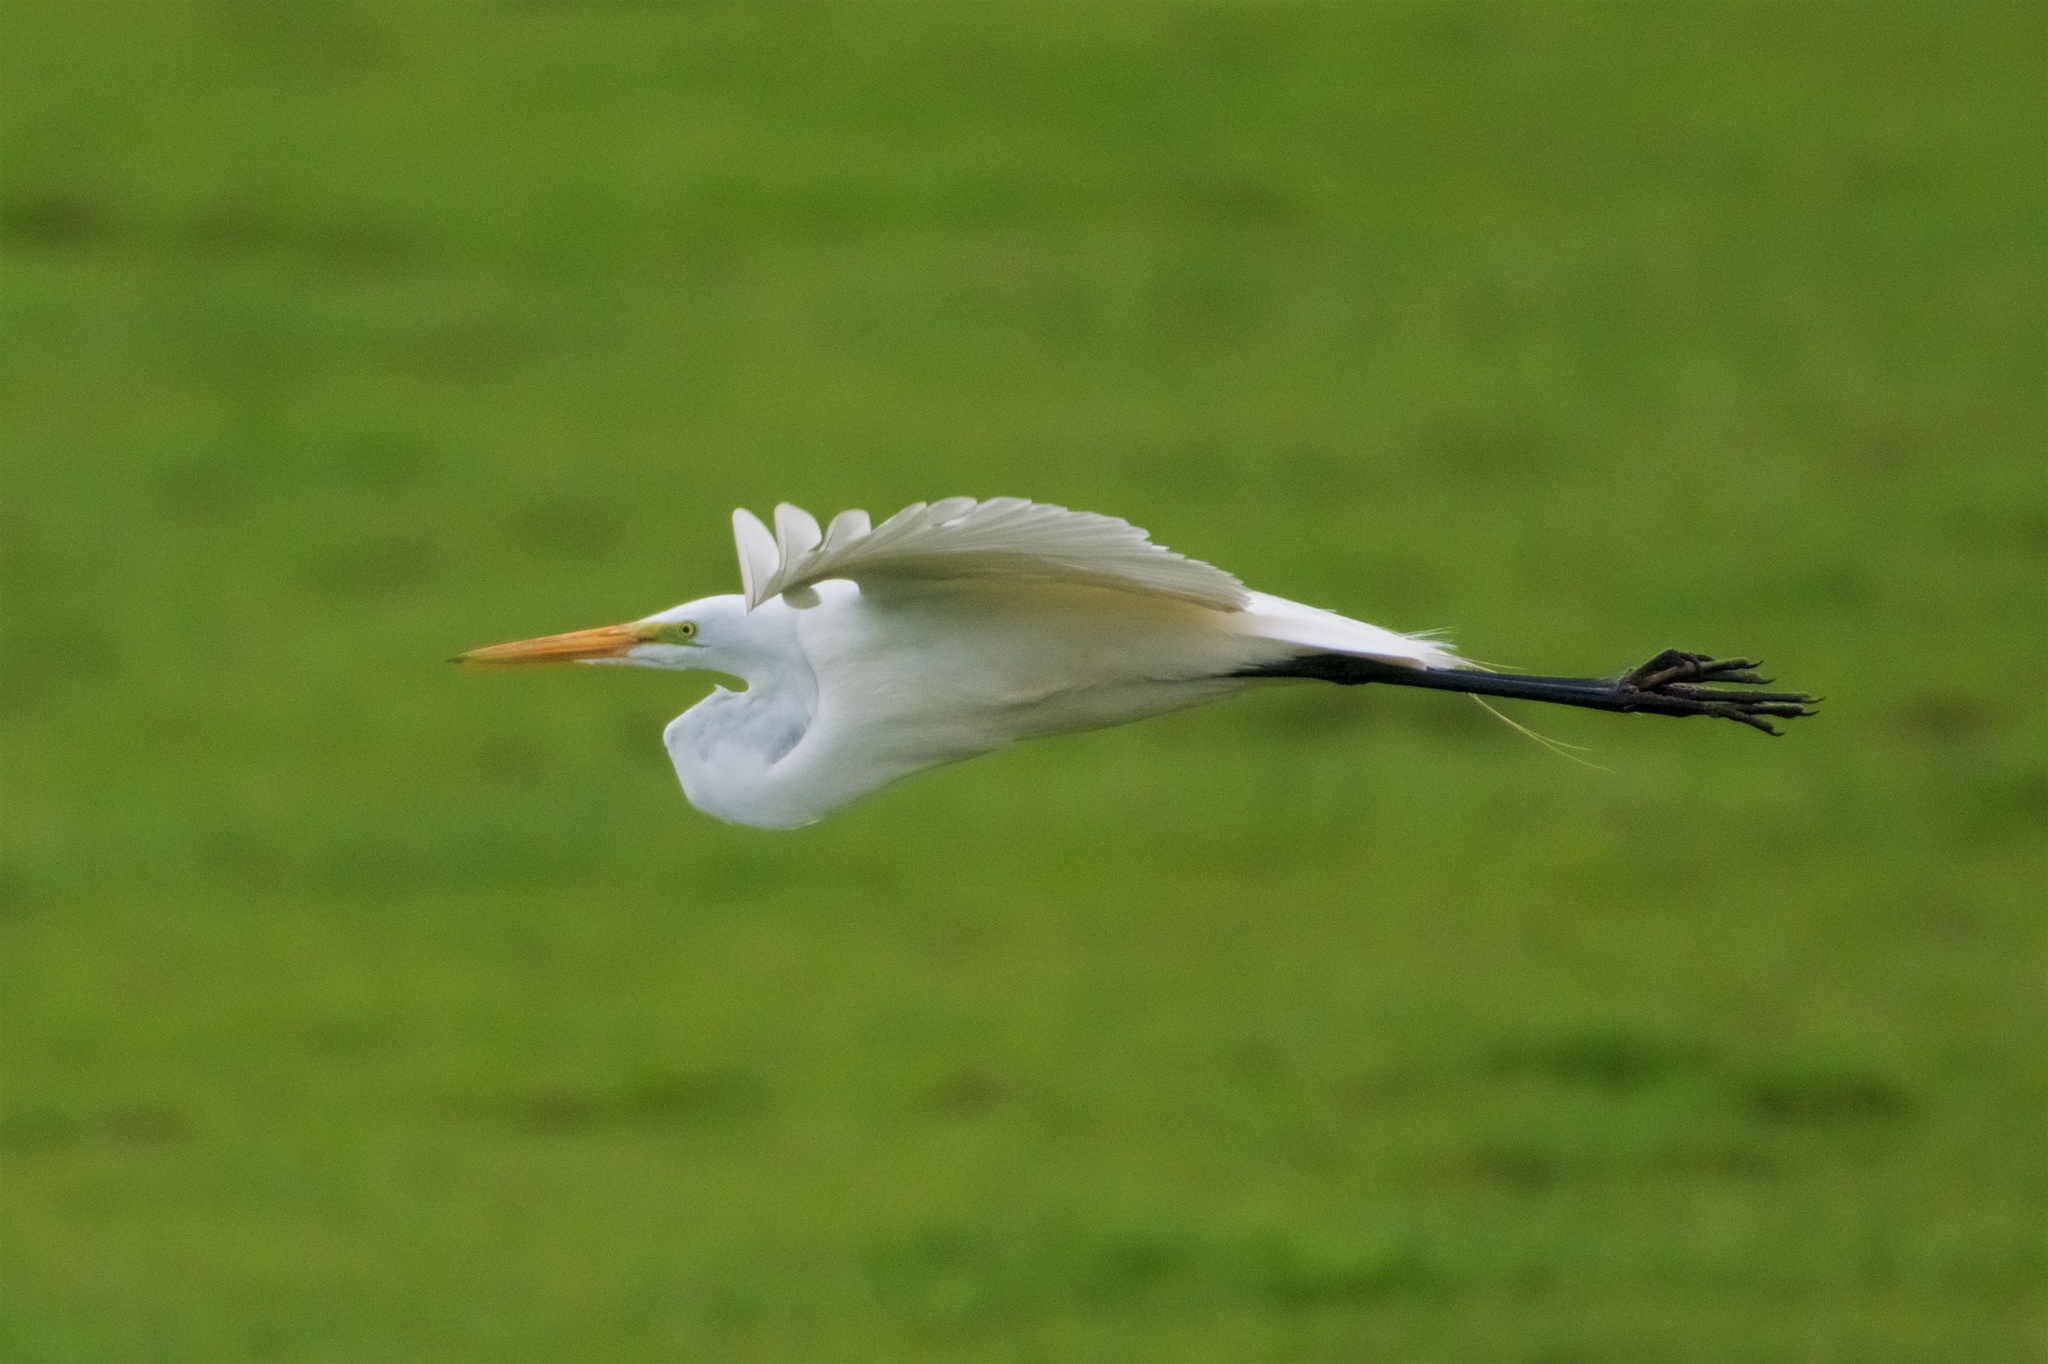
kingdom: Animalia
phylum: Chordata
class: Aves
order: Pelecaniformes
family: Ardeidae
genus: Ardea
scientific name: Ardea alba
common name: Great egret
